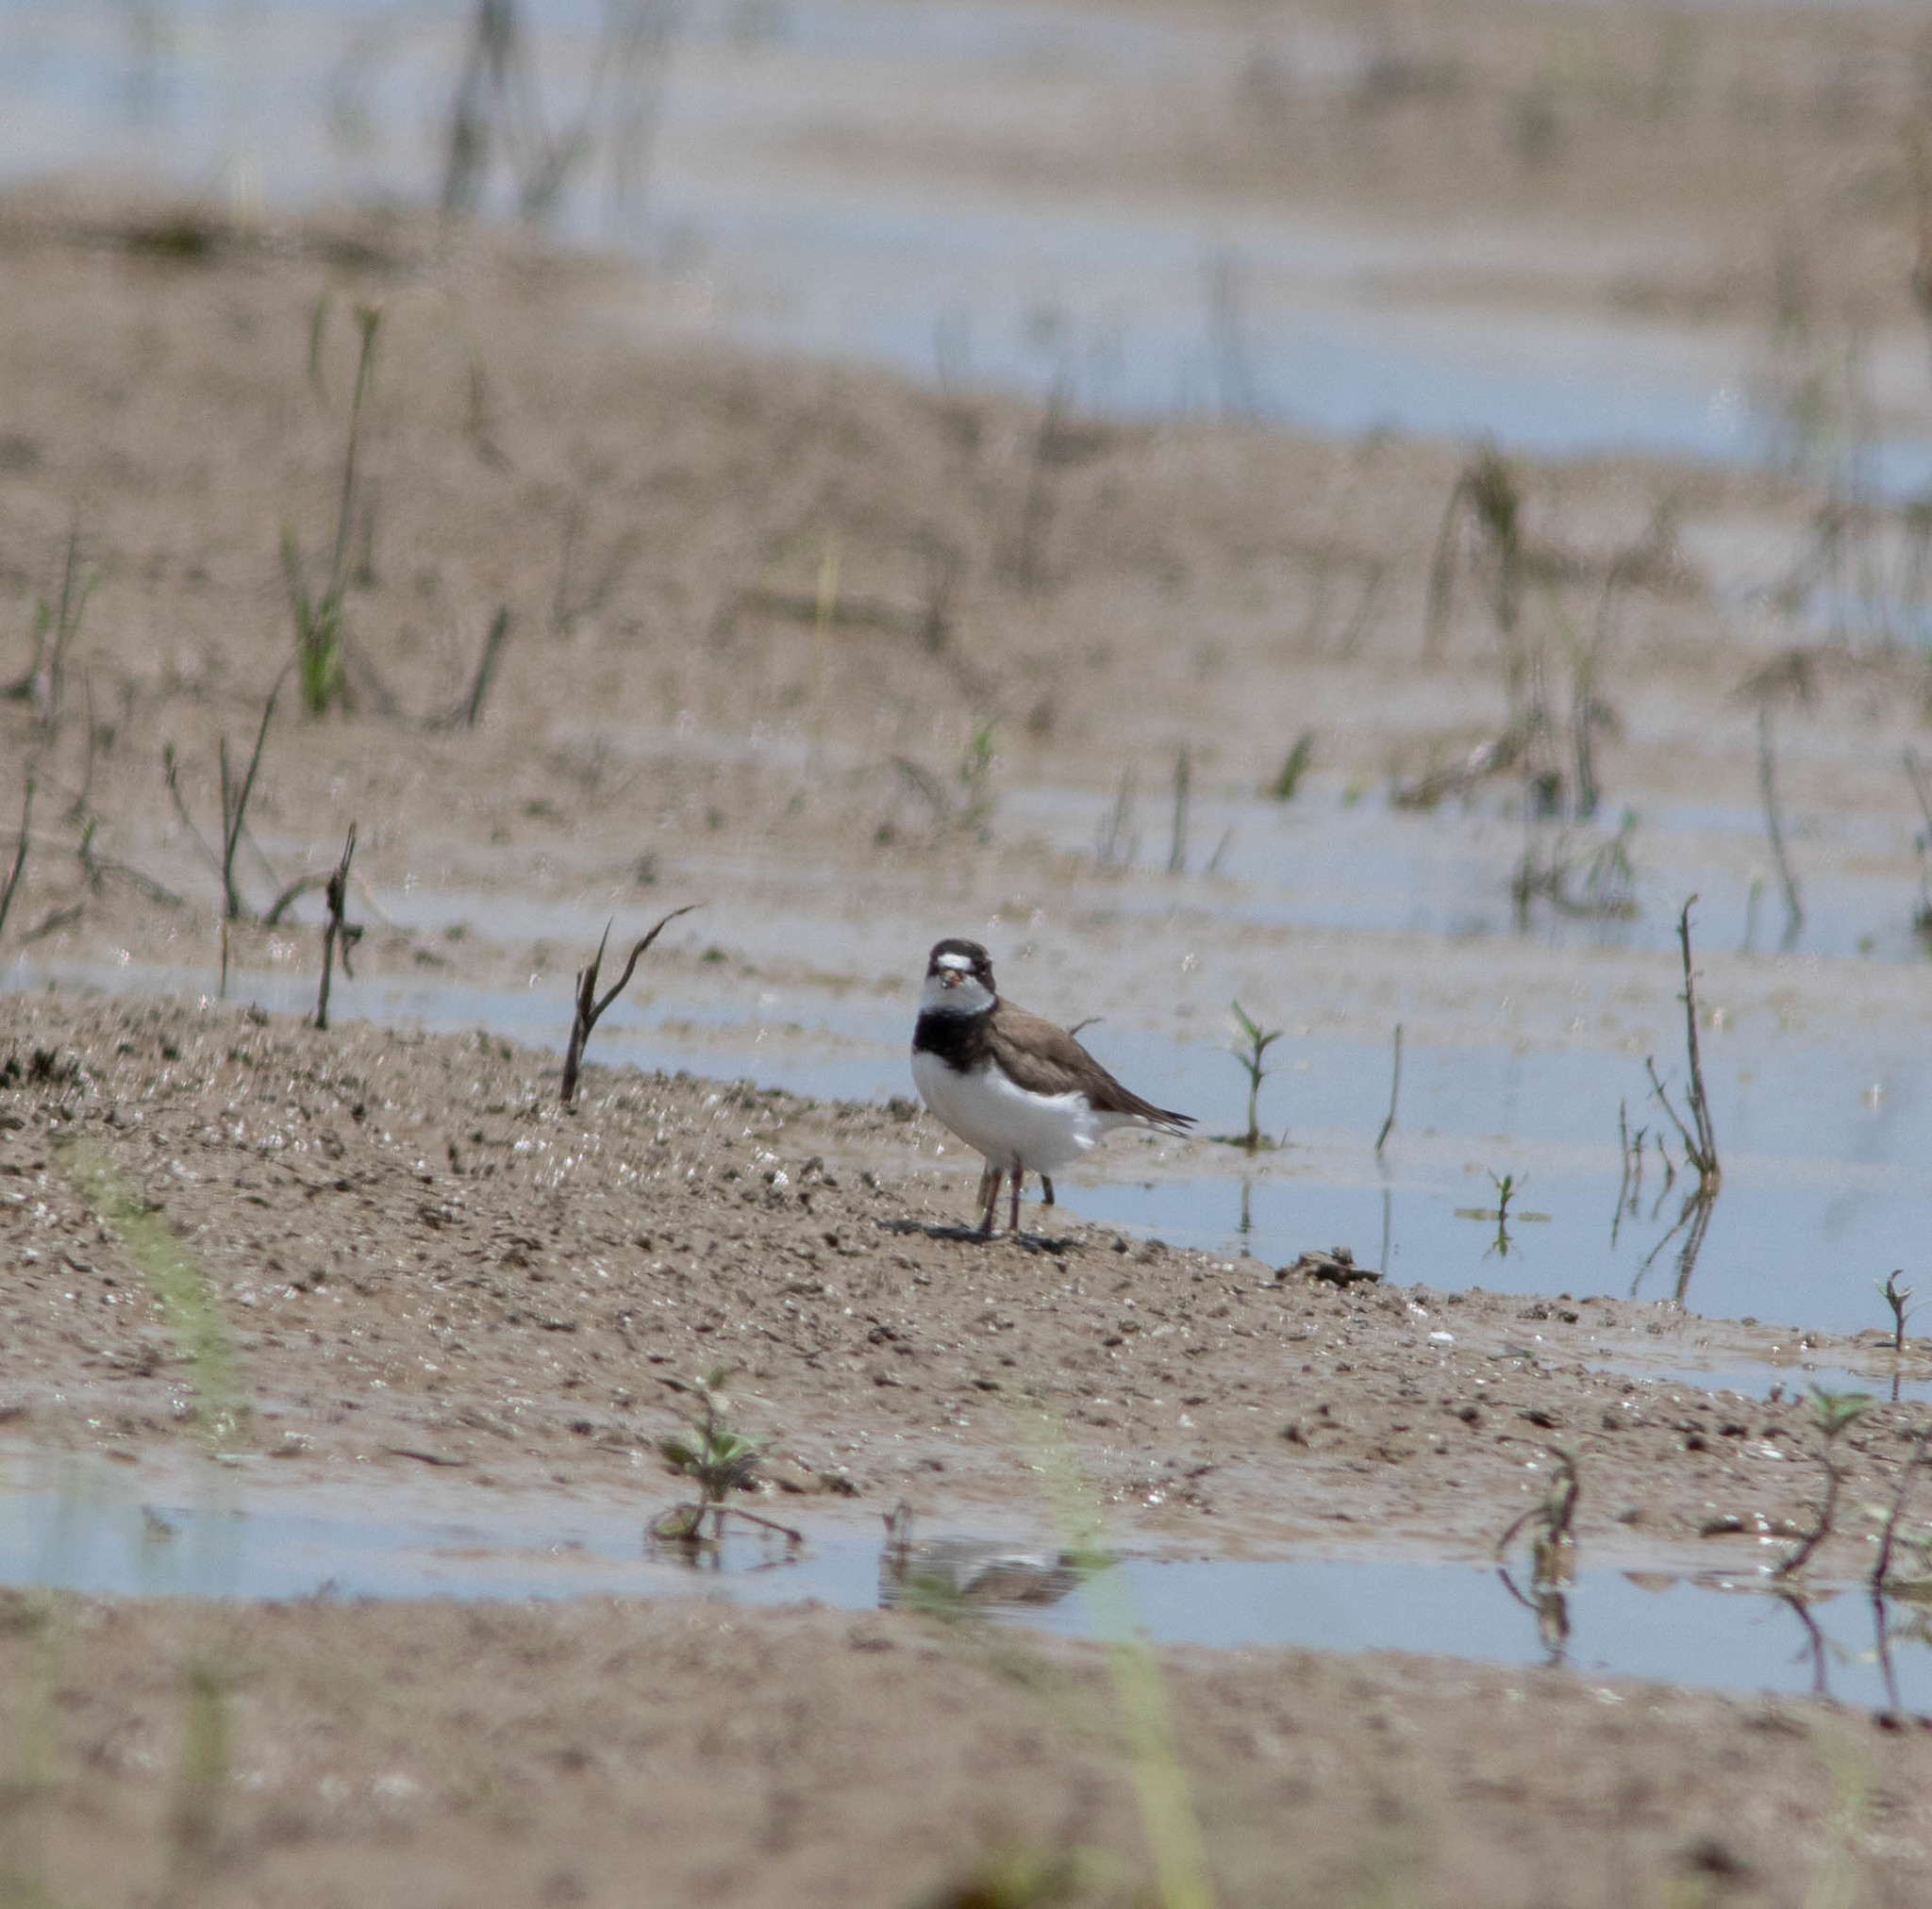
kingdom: Animalia
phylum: Chordata
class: Aves
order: Charadriiformes
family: Charadriidae
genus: Charadrius
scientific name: Charadrius semipalmatus
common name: Semipalmated plover
